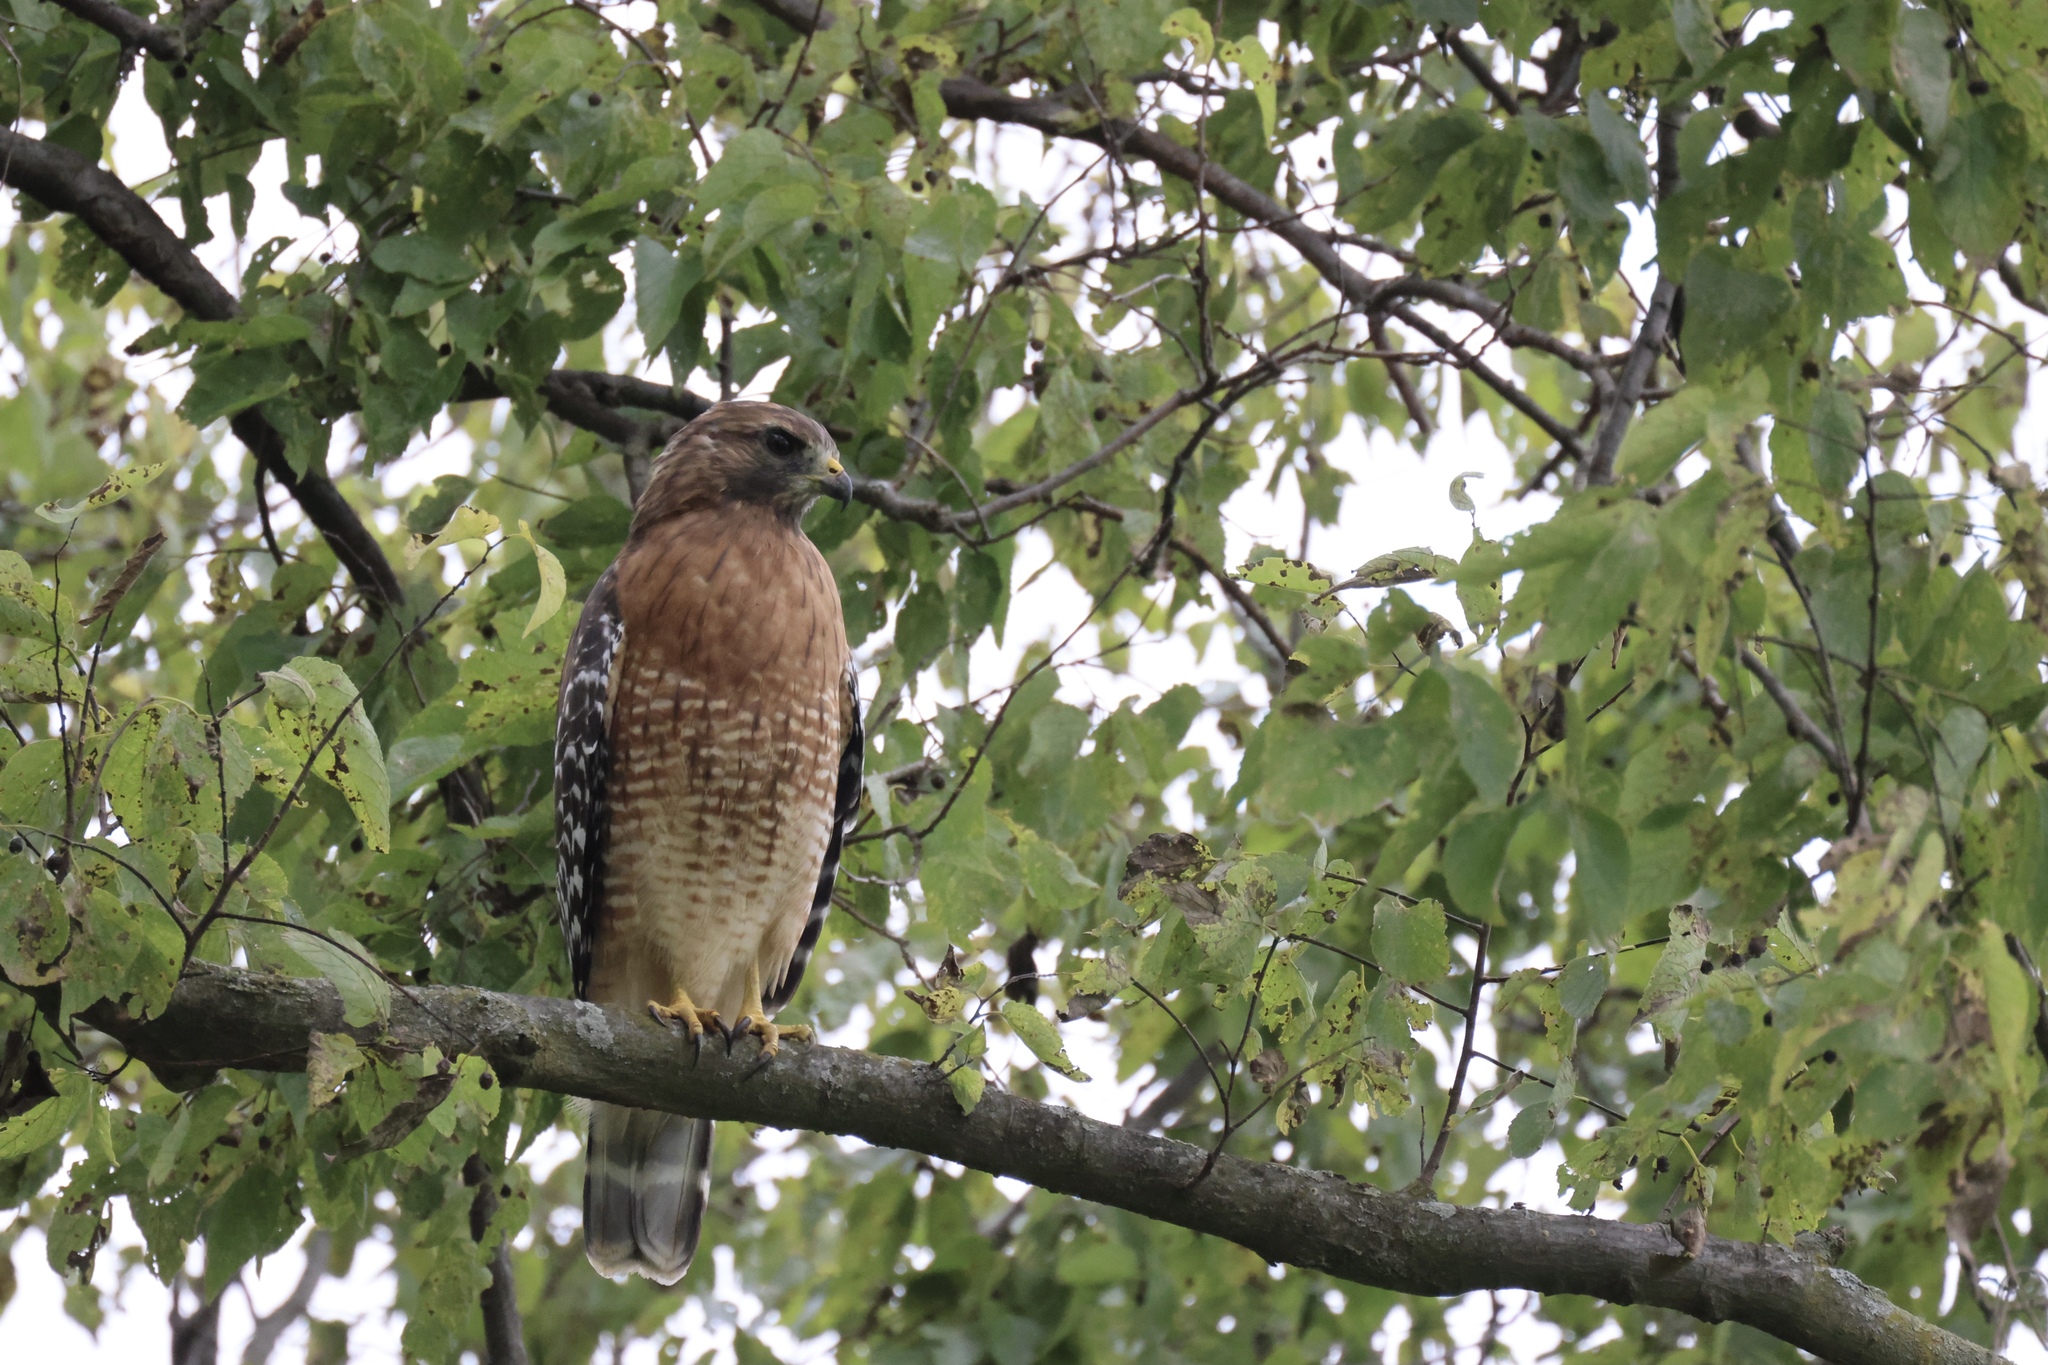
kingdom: Animalia
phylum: Chordata
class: Aves
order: Accipitriformes
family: Accipitridae
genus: Buteo
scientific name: Buteo lineatus
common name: Red-shouldered hawk
